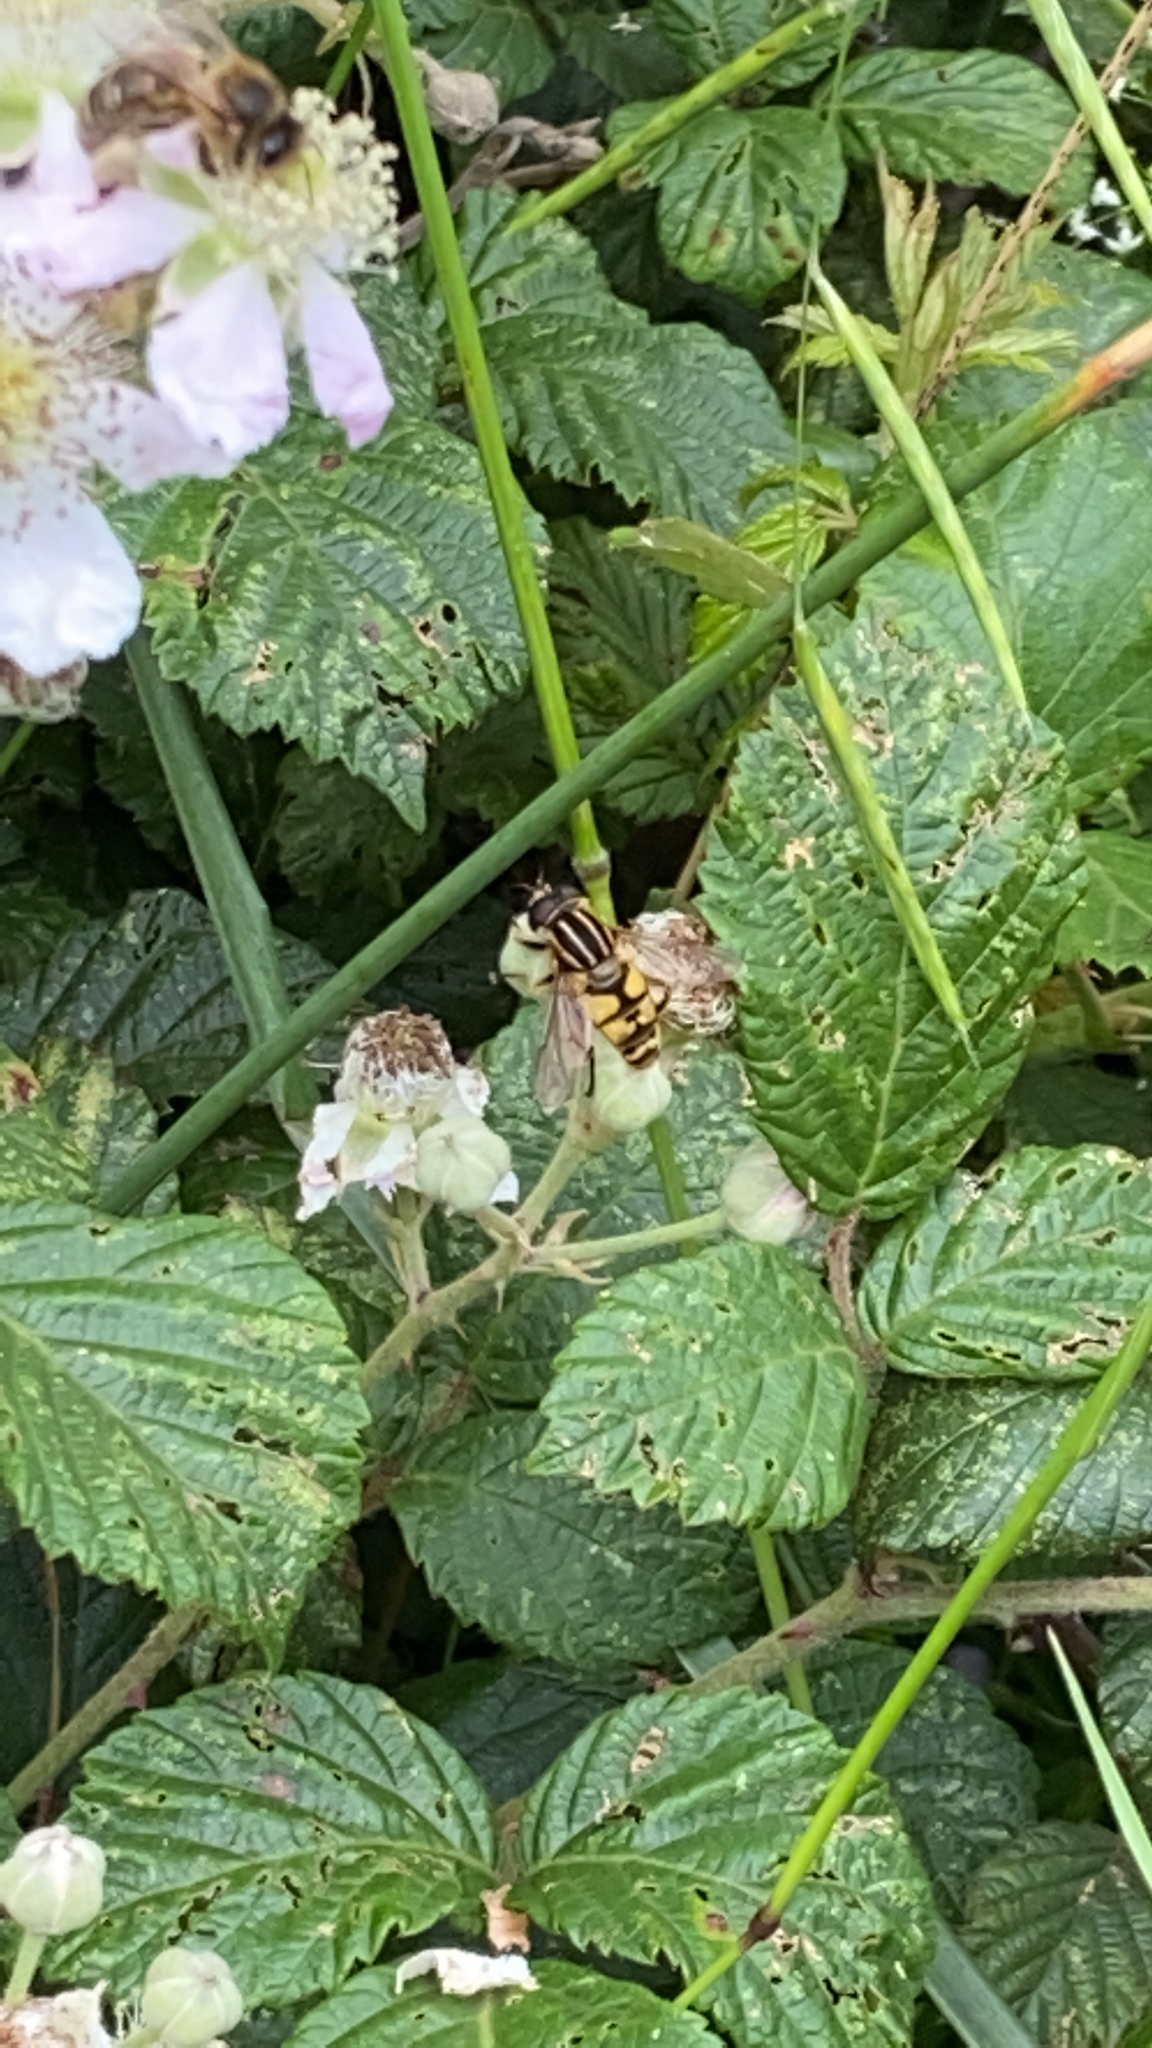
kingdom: Animalia
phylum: Arthropoda
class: Insecta
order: Diptera
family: Syrphidae
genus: Helophilus
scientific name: Helophilus pendulus
